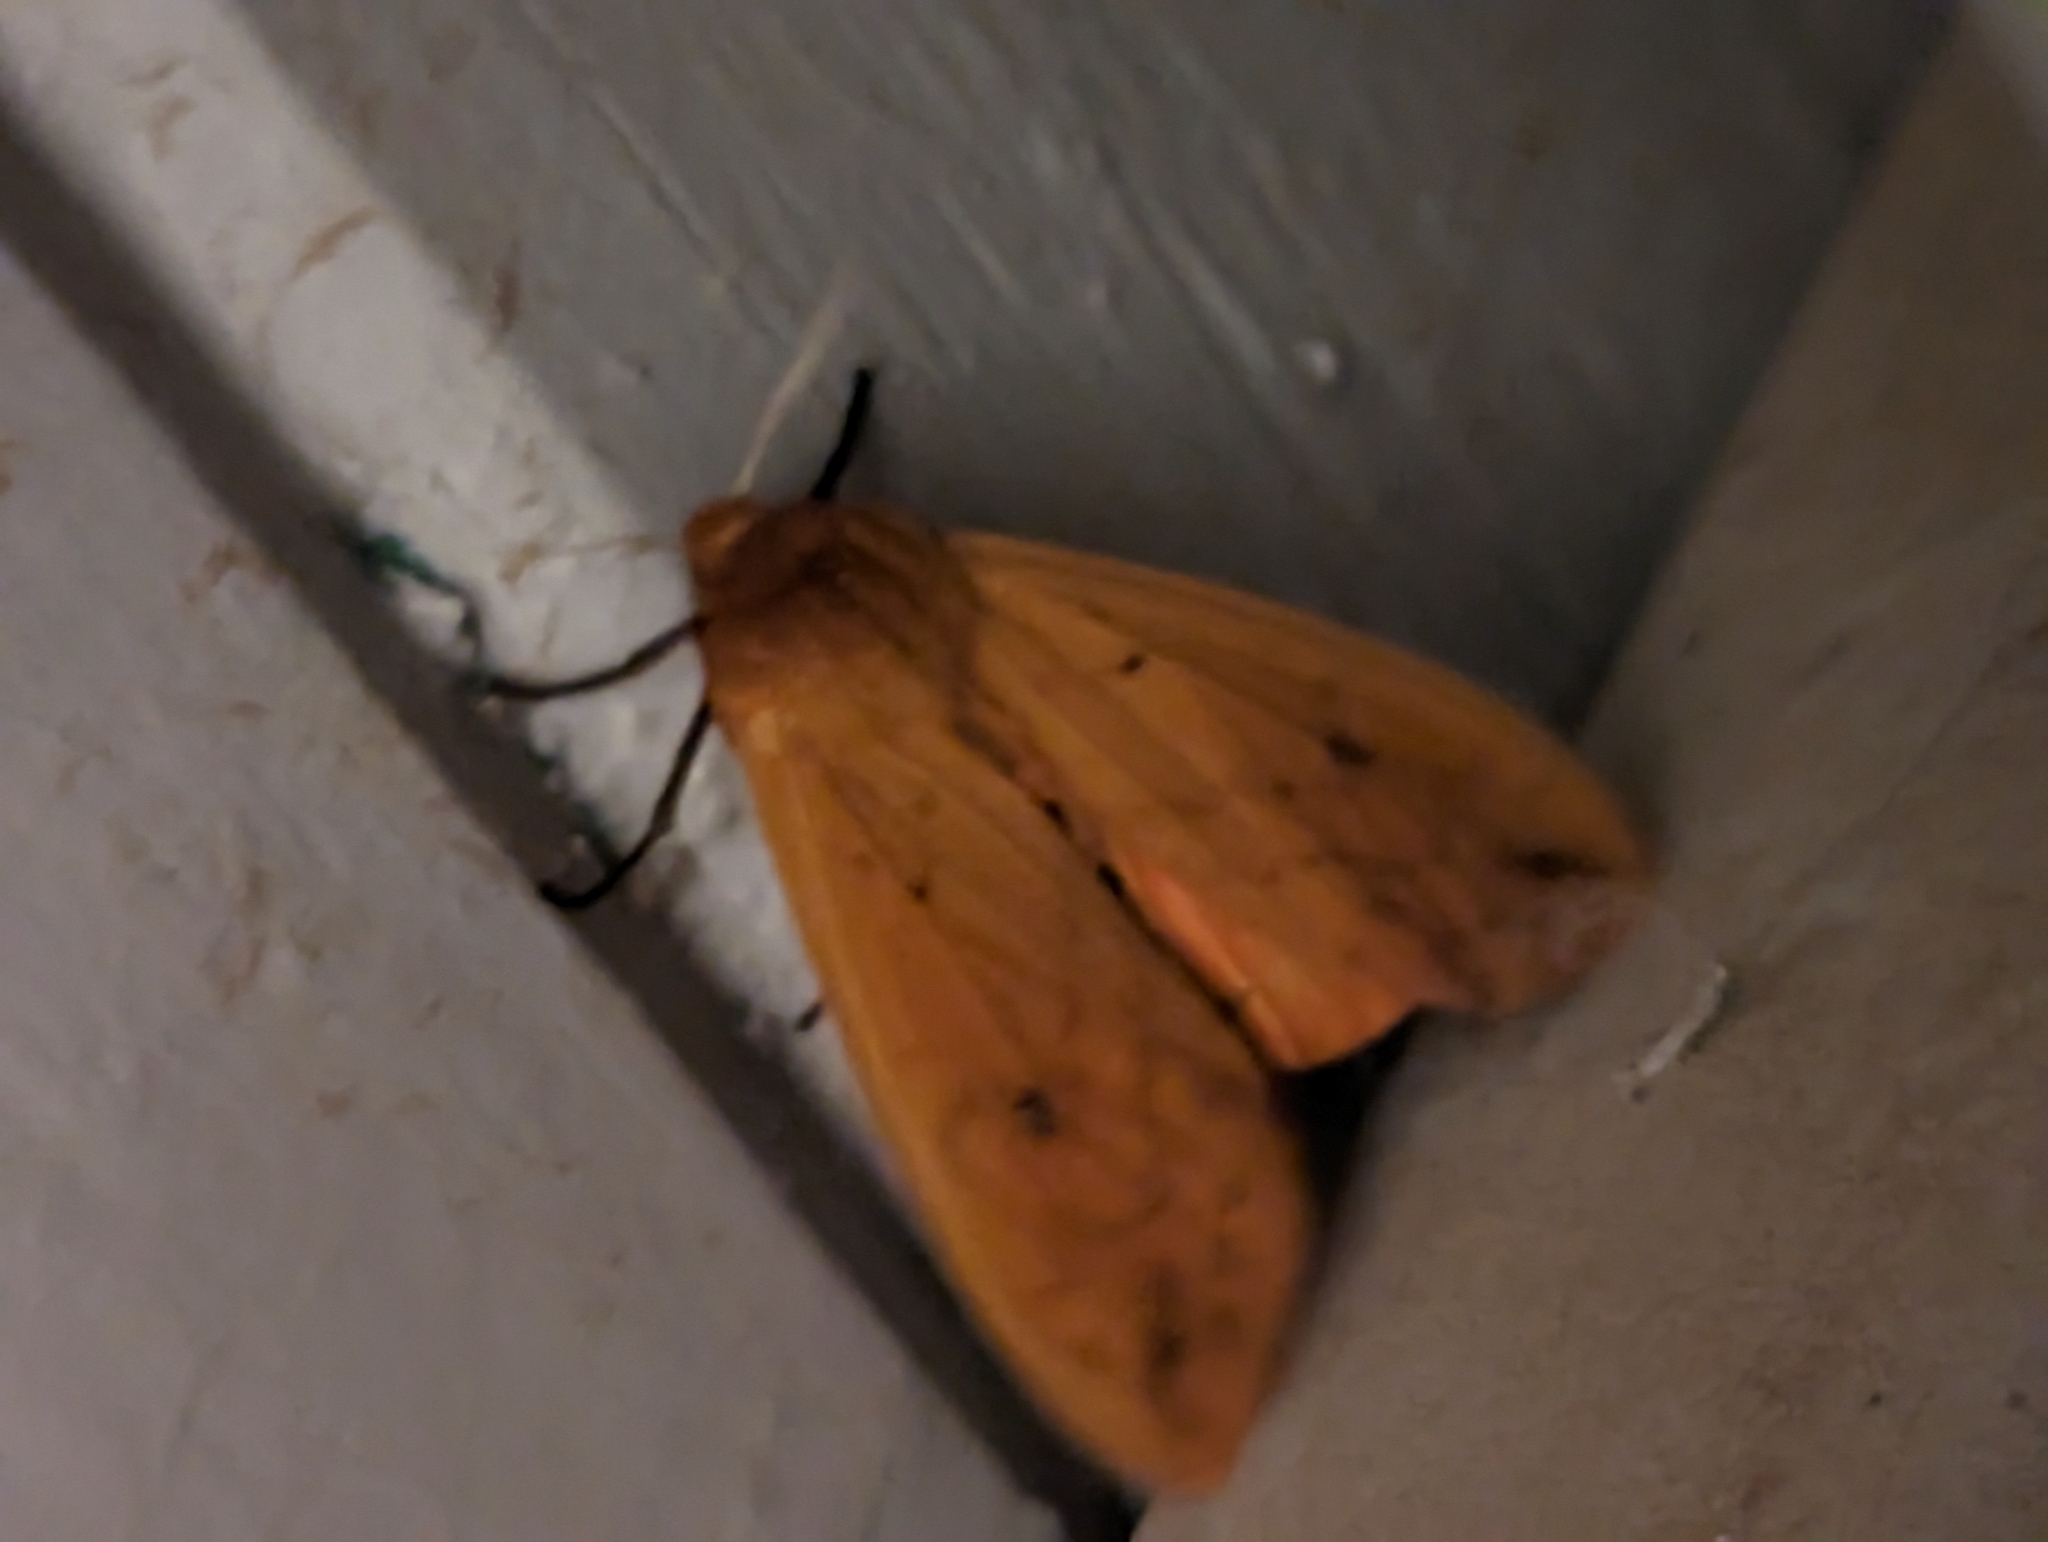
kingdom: Animalia
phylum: Arthropoda
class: Insecta
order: Lepidoptera
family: Erebidae
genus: Pyrrharctia
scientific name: Pyrrharctia isabella
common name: Isabella tiger moth
